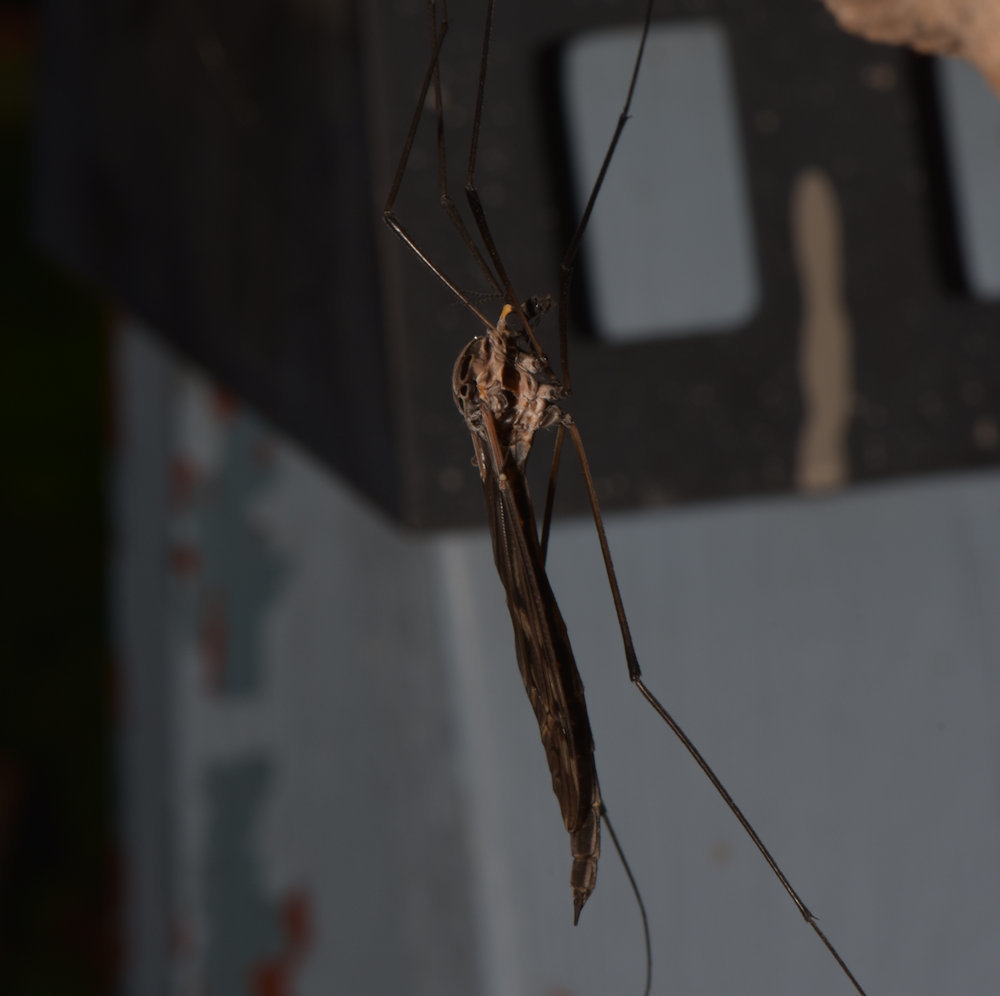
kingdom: Animalia
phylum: Arthropoda
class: Insecta
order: Diptera
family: Tipulidae
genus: Tipula
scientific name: Tipula metacomet
